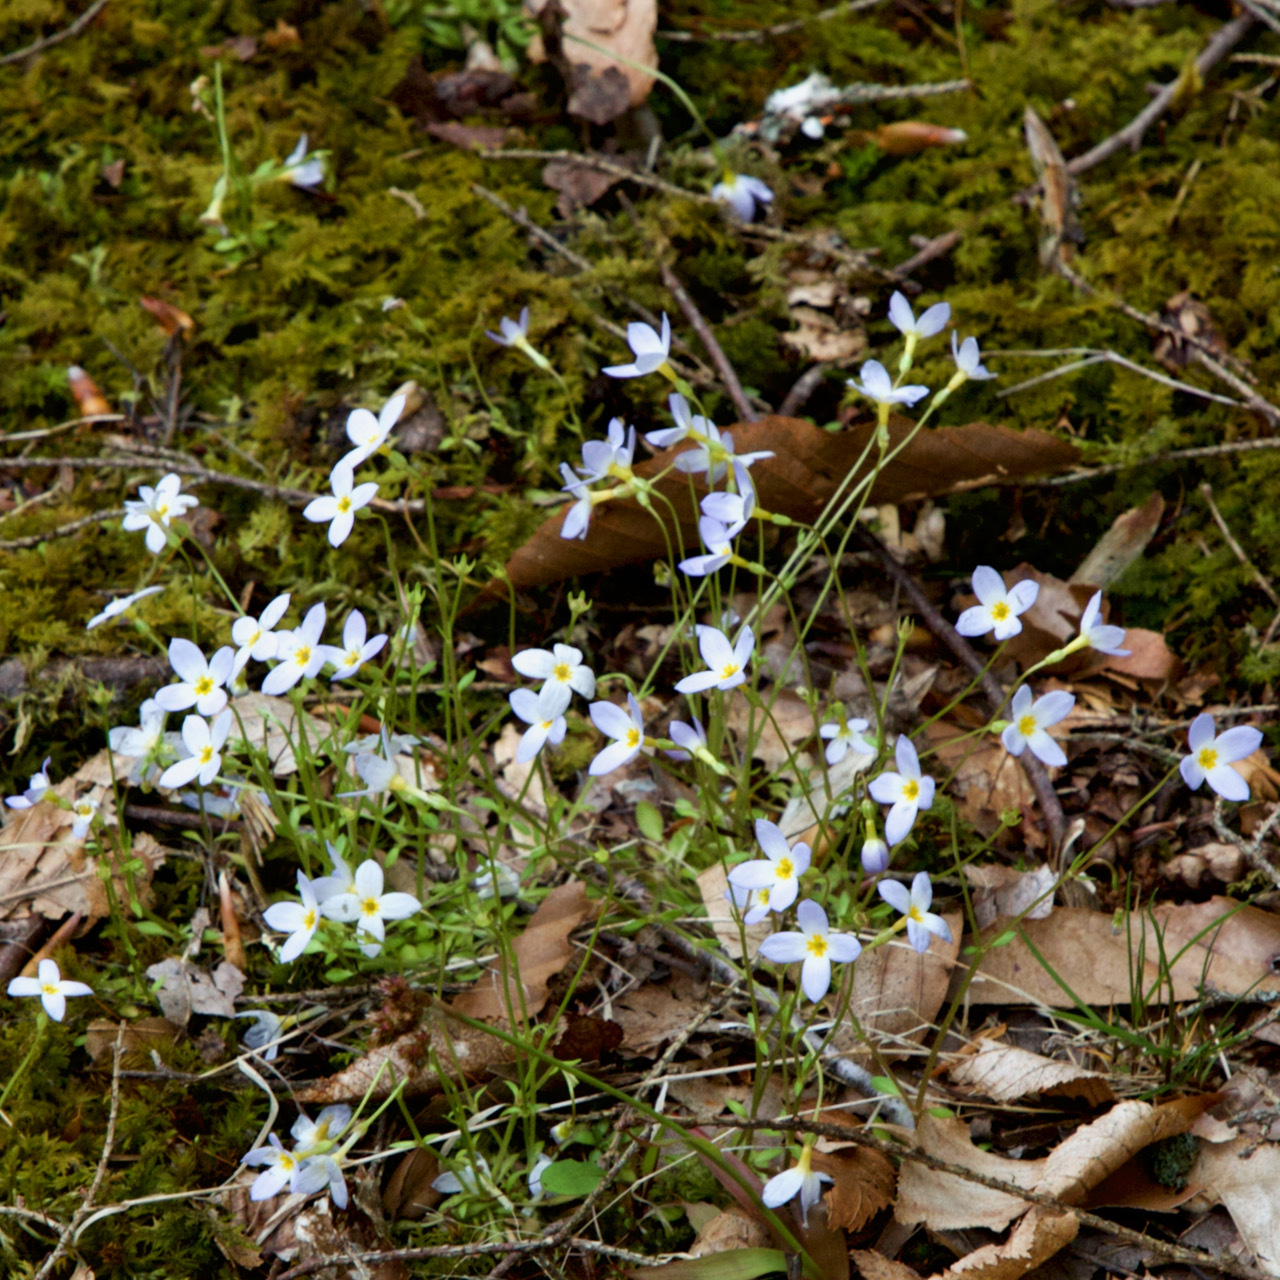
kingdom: Plantae
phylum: Tracheophyta
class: Magnoliopsida
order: Gentianales
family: Rubiaceae
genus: Houstonia
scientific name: Houstonia caerulea
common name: Bluets
